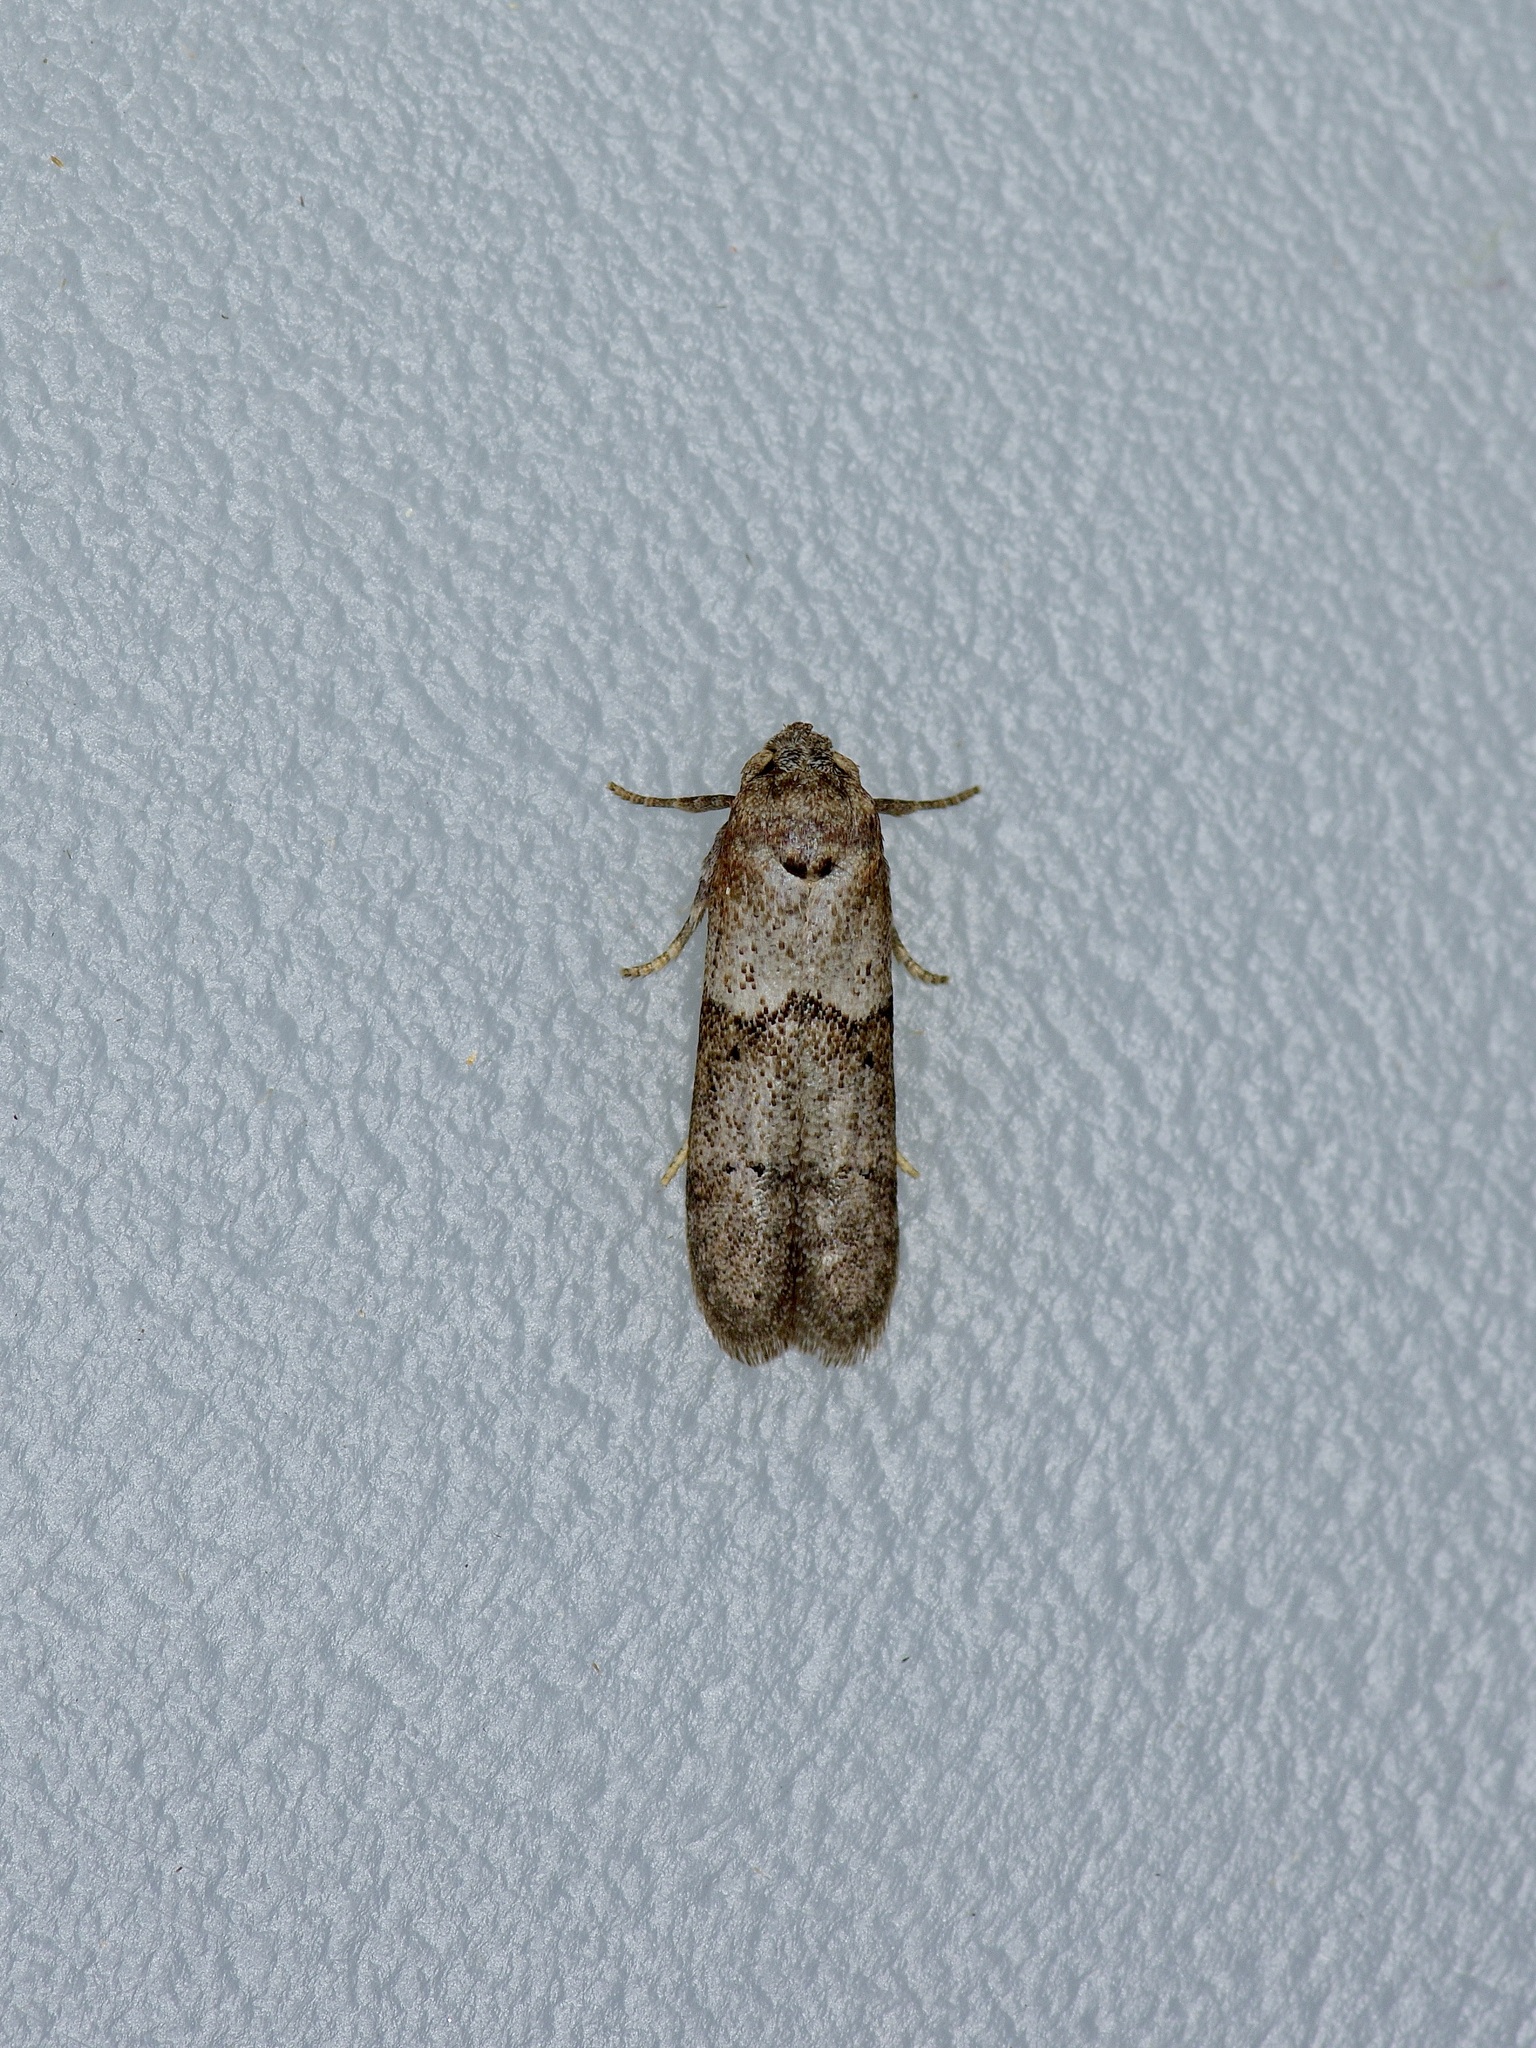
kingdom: Animalia
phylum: Arthropoda
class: Insecta
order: Lepidoptera
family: Blastobasidae
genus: Blastobasis
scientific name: Blastobasis glandulella
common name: Acorn moth
